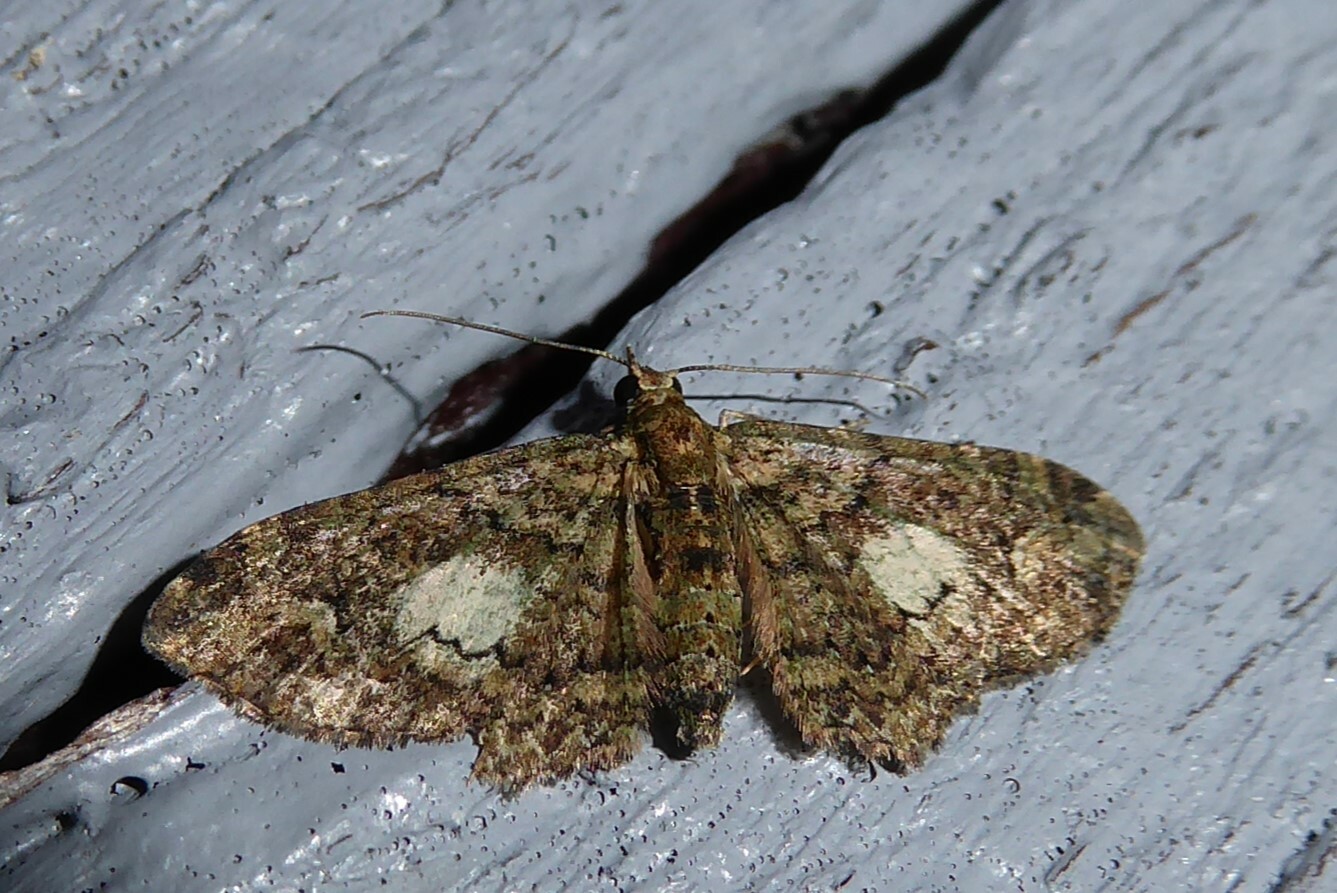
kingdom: Animalia
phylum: Arthropoda
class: Insecta
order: Lepidoptera
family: Geometridae
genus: Pasiphilodes
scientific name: Pasiphilodes testulata
